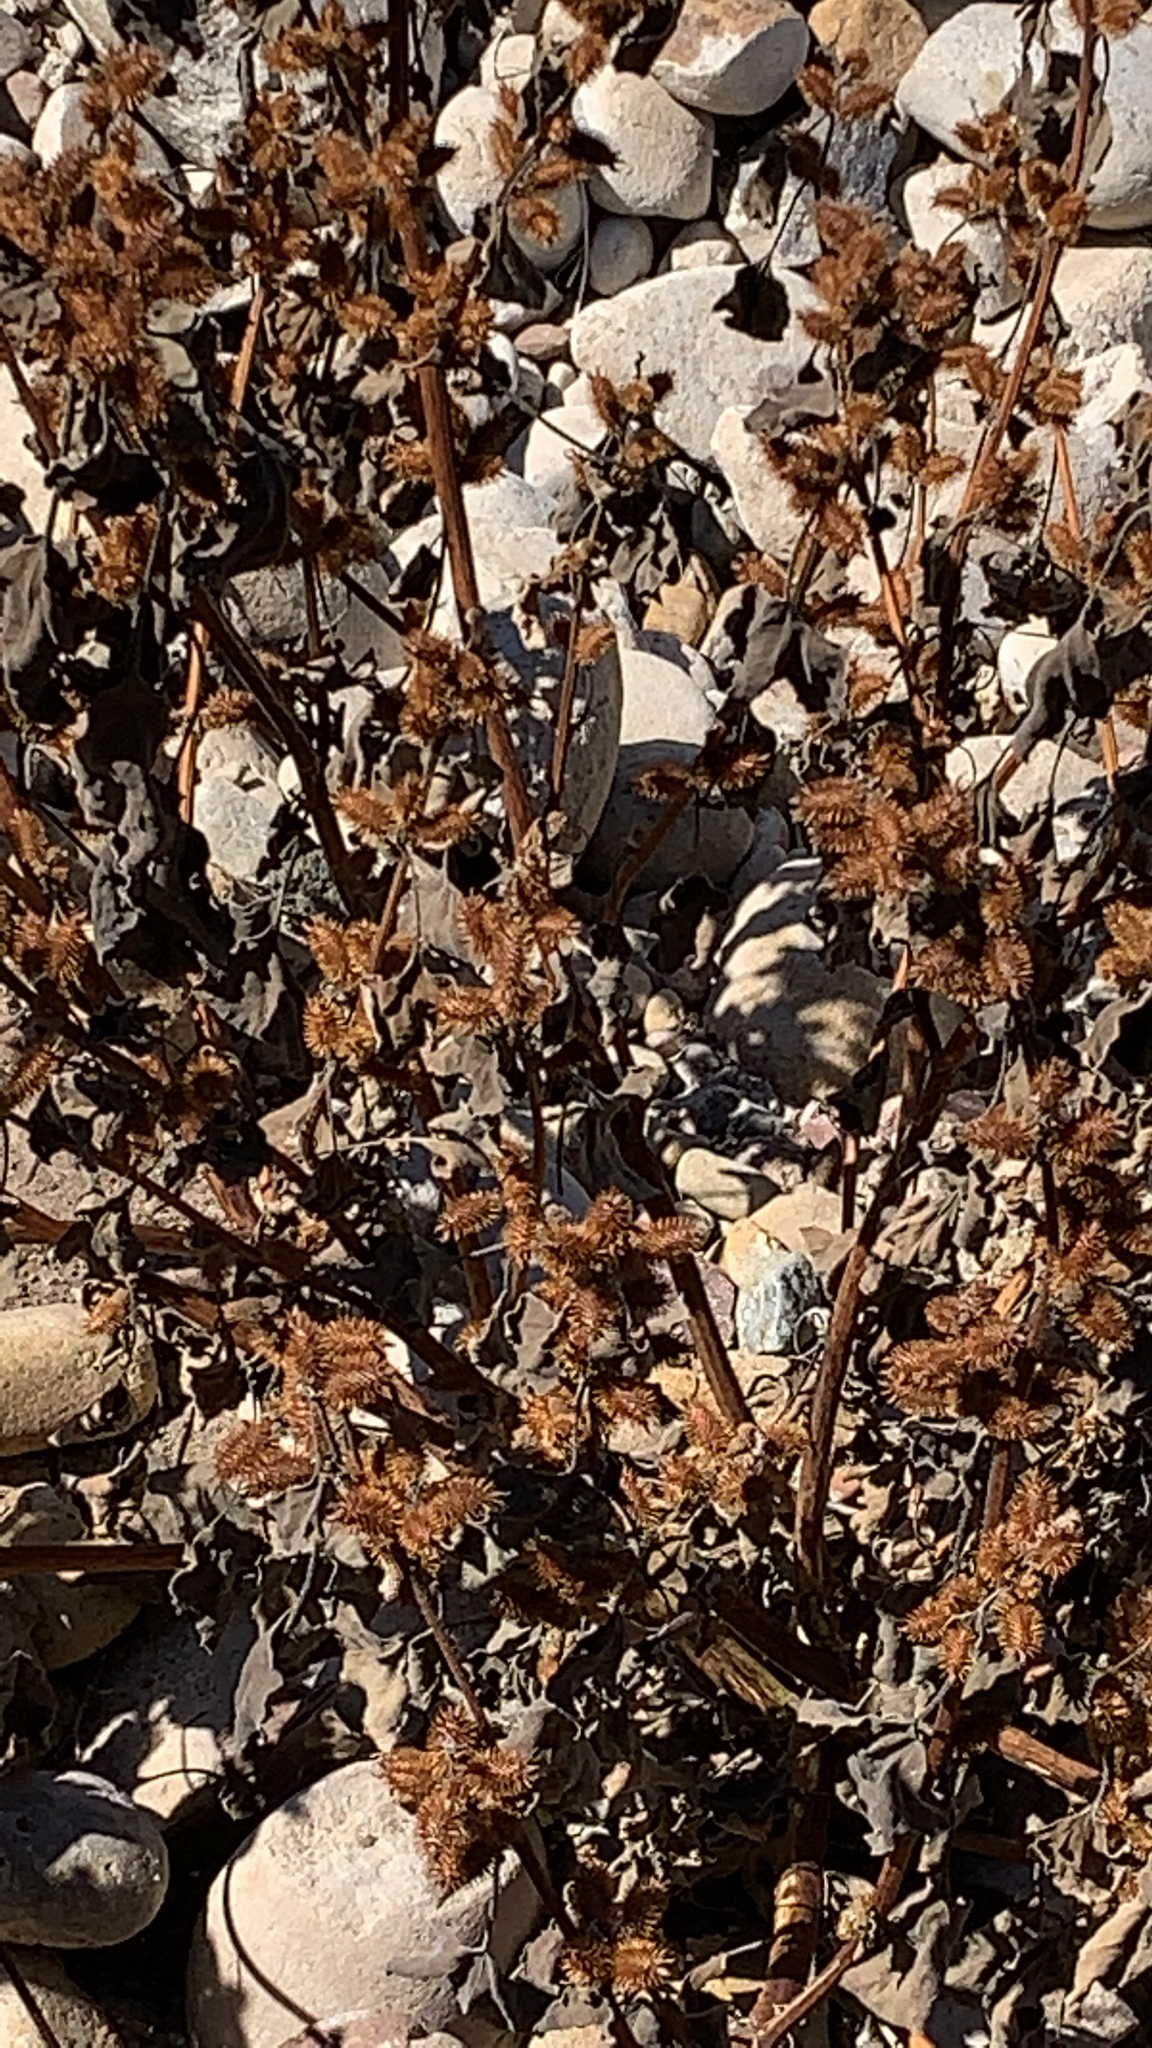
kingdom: Plantae
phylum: Tracheophyta
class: Magnoliopsida
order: Asterales
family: Asteraceae
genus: Xanthium
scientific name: Xanthium strumarium
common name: Rough cocklebur
